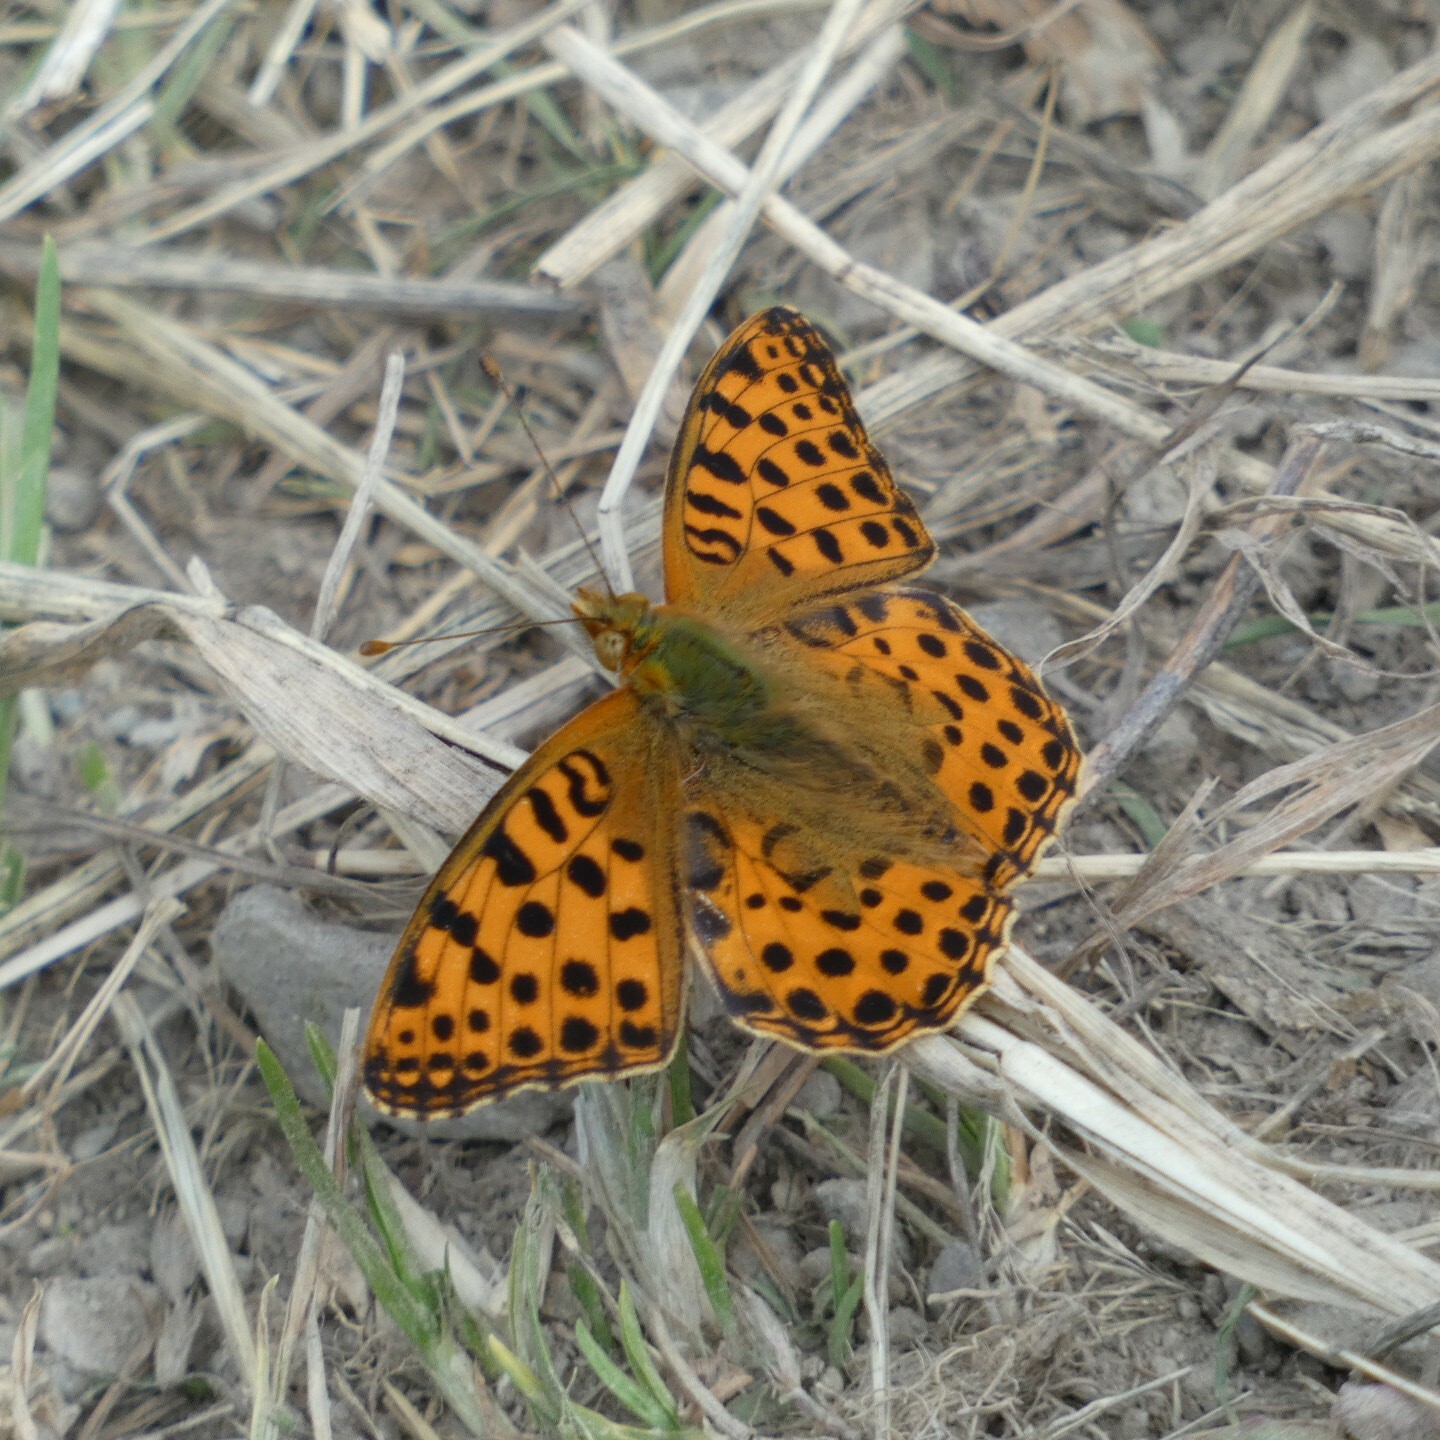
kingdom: Animalia
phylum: Arthropoda
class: Insecta
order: Lepidoptera
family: Nymphalidae
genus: Issoria
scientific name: Issoria lathonia
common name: Queen of spain fritillary
